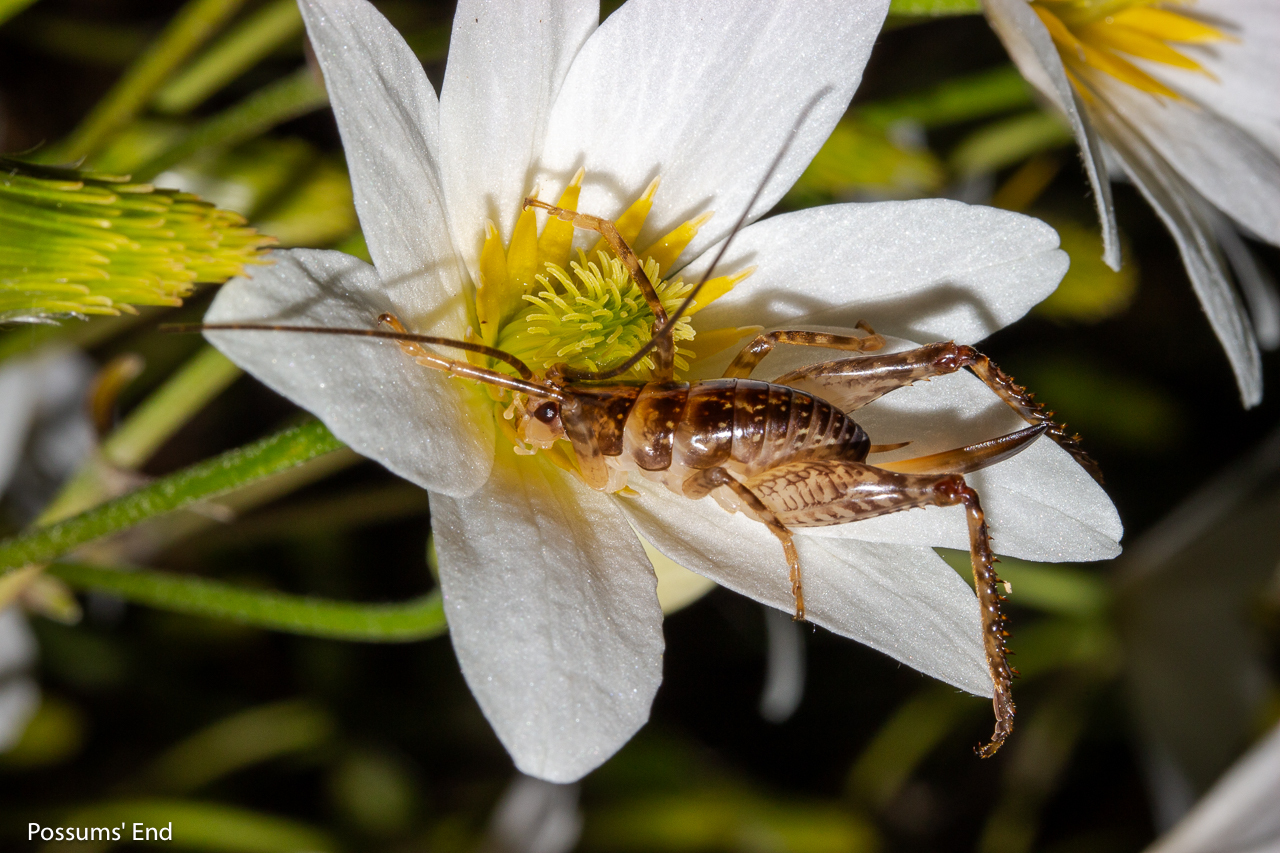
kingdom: Animalia
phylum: Arthropoda
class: Insecta
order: Orthoptera
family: Rhaphidophoridae
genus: Talitropsis
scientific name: Talitropsis sedilloti
